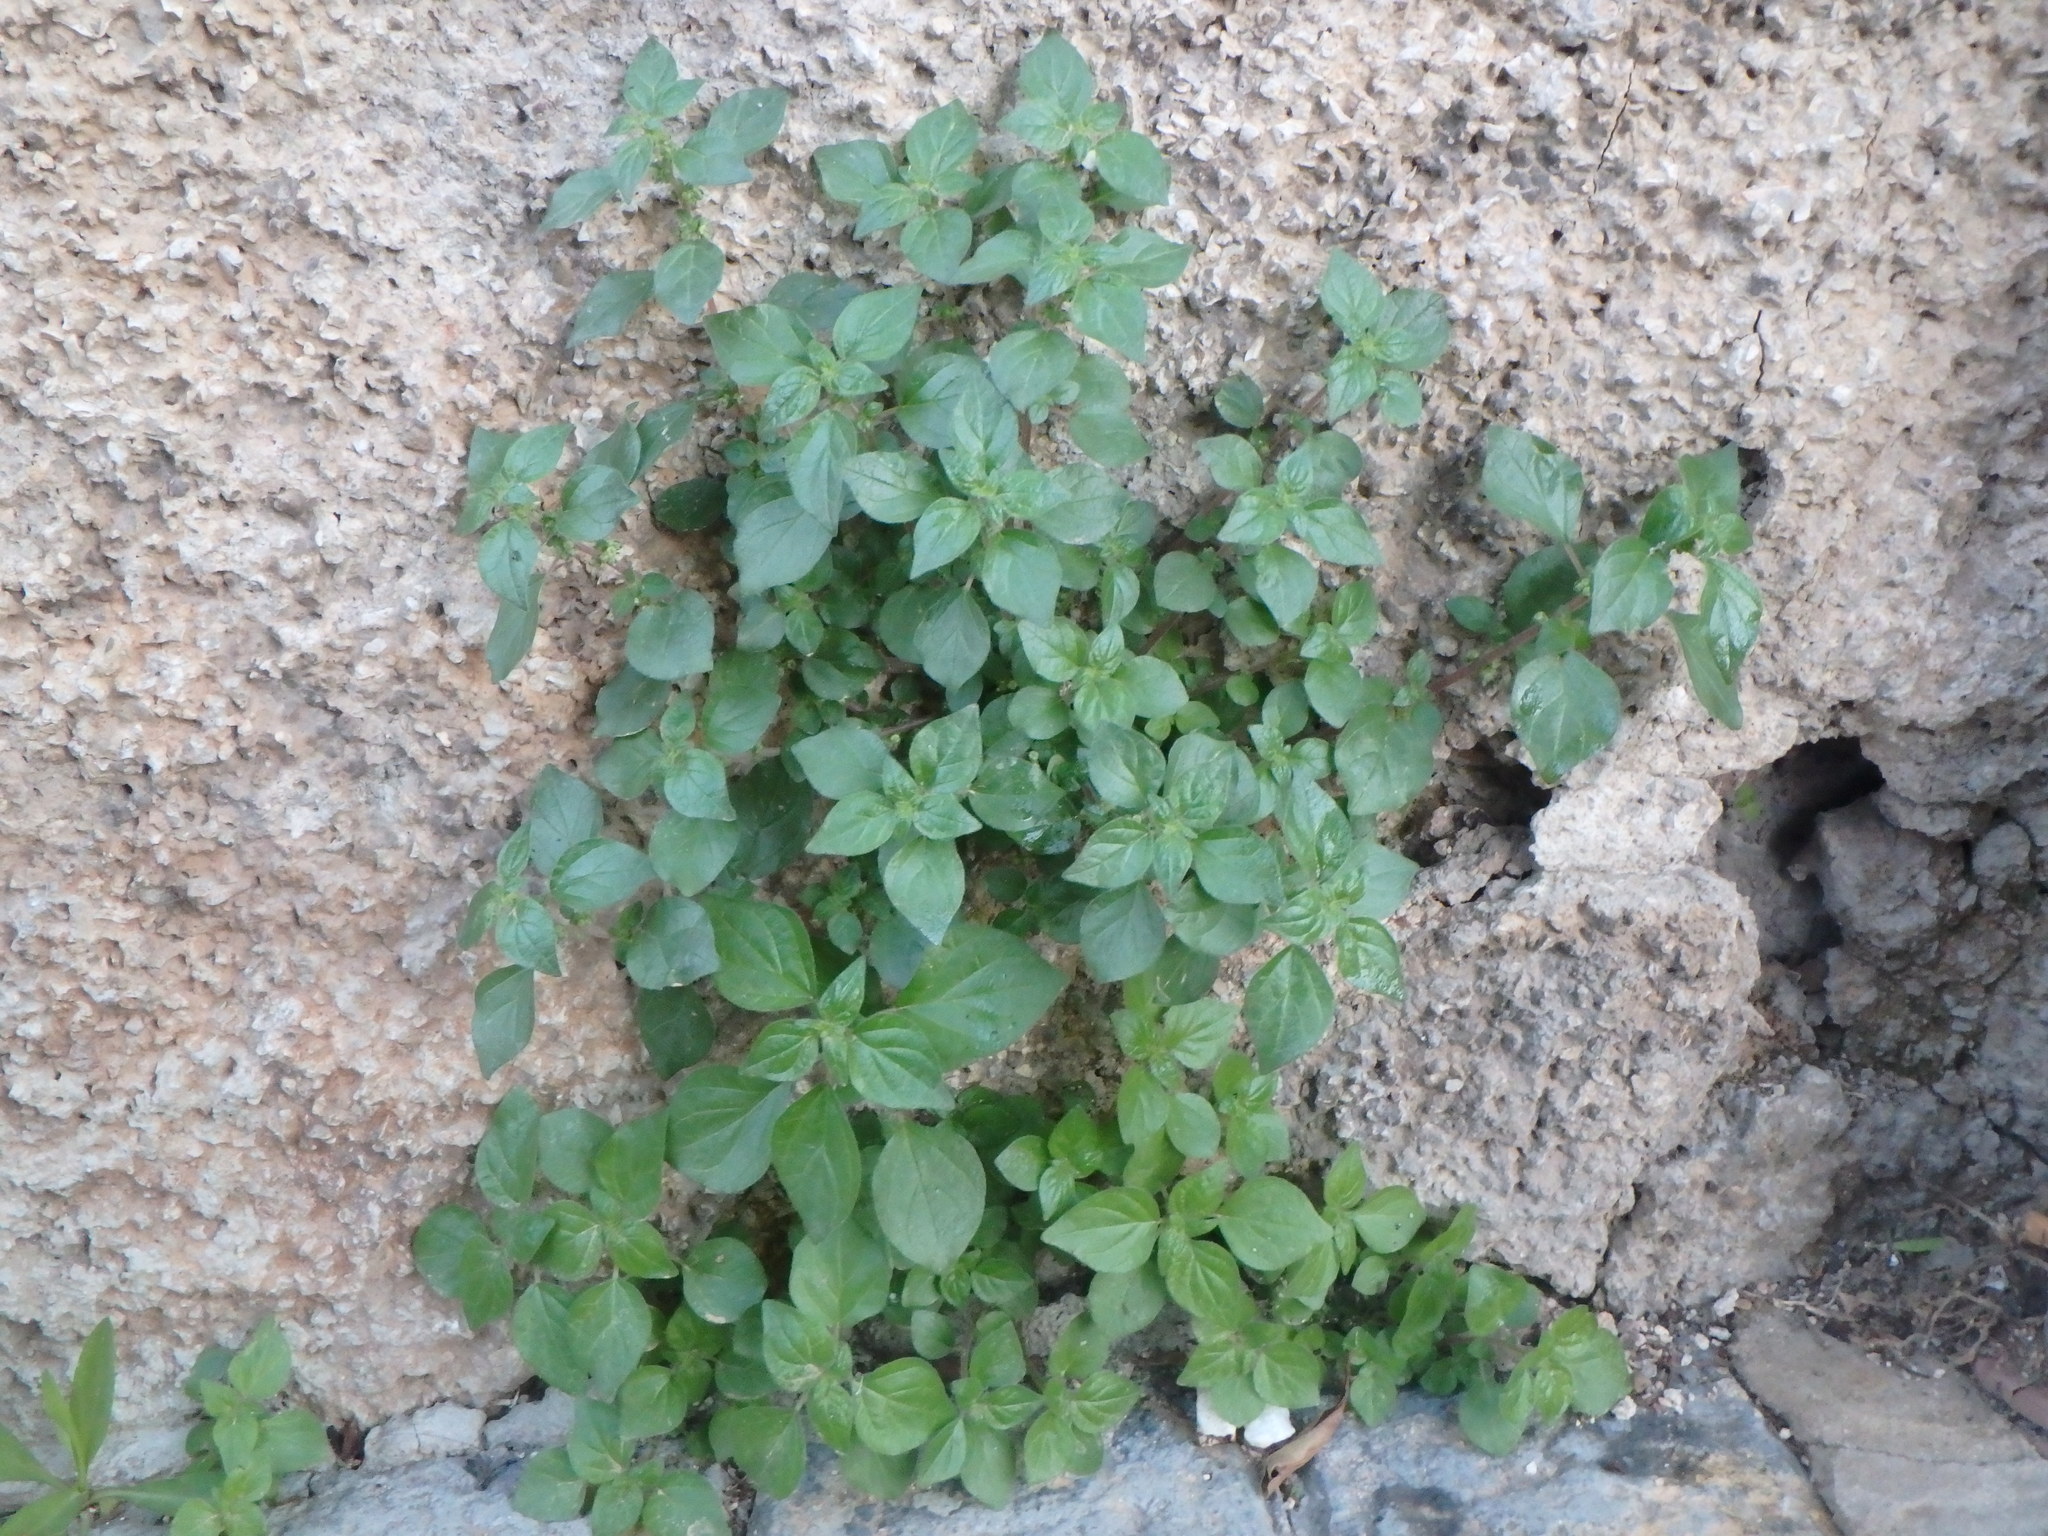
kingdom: Plantae
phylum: Tracheophyta
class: Magnoliopsida
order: Rosales
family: Urticaceae
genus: Parietaria
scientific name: Parietaria judaica
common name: Pellitory-of-the-wall
